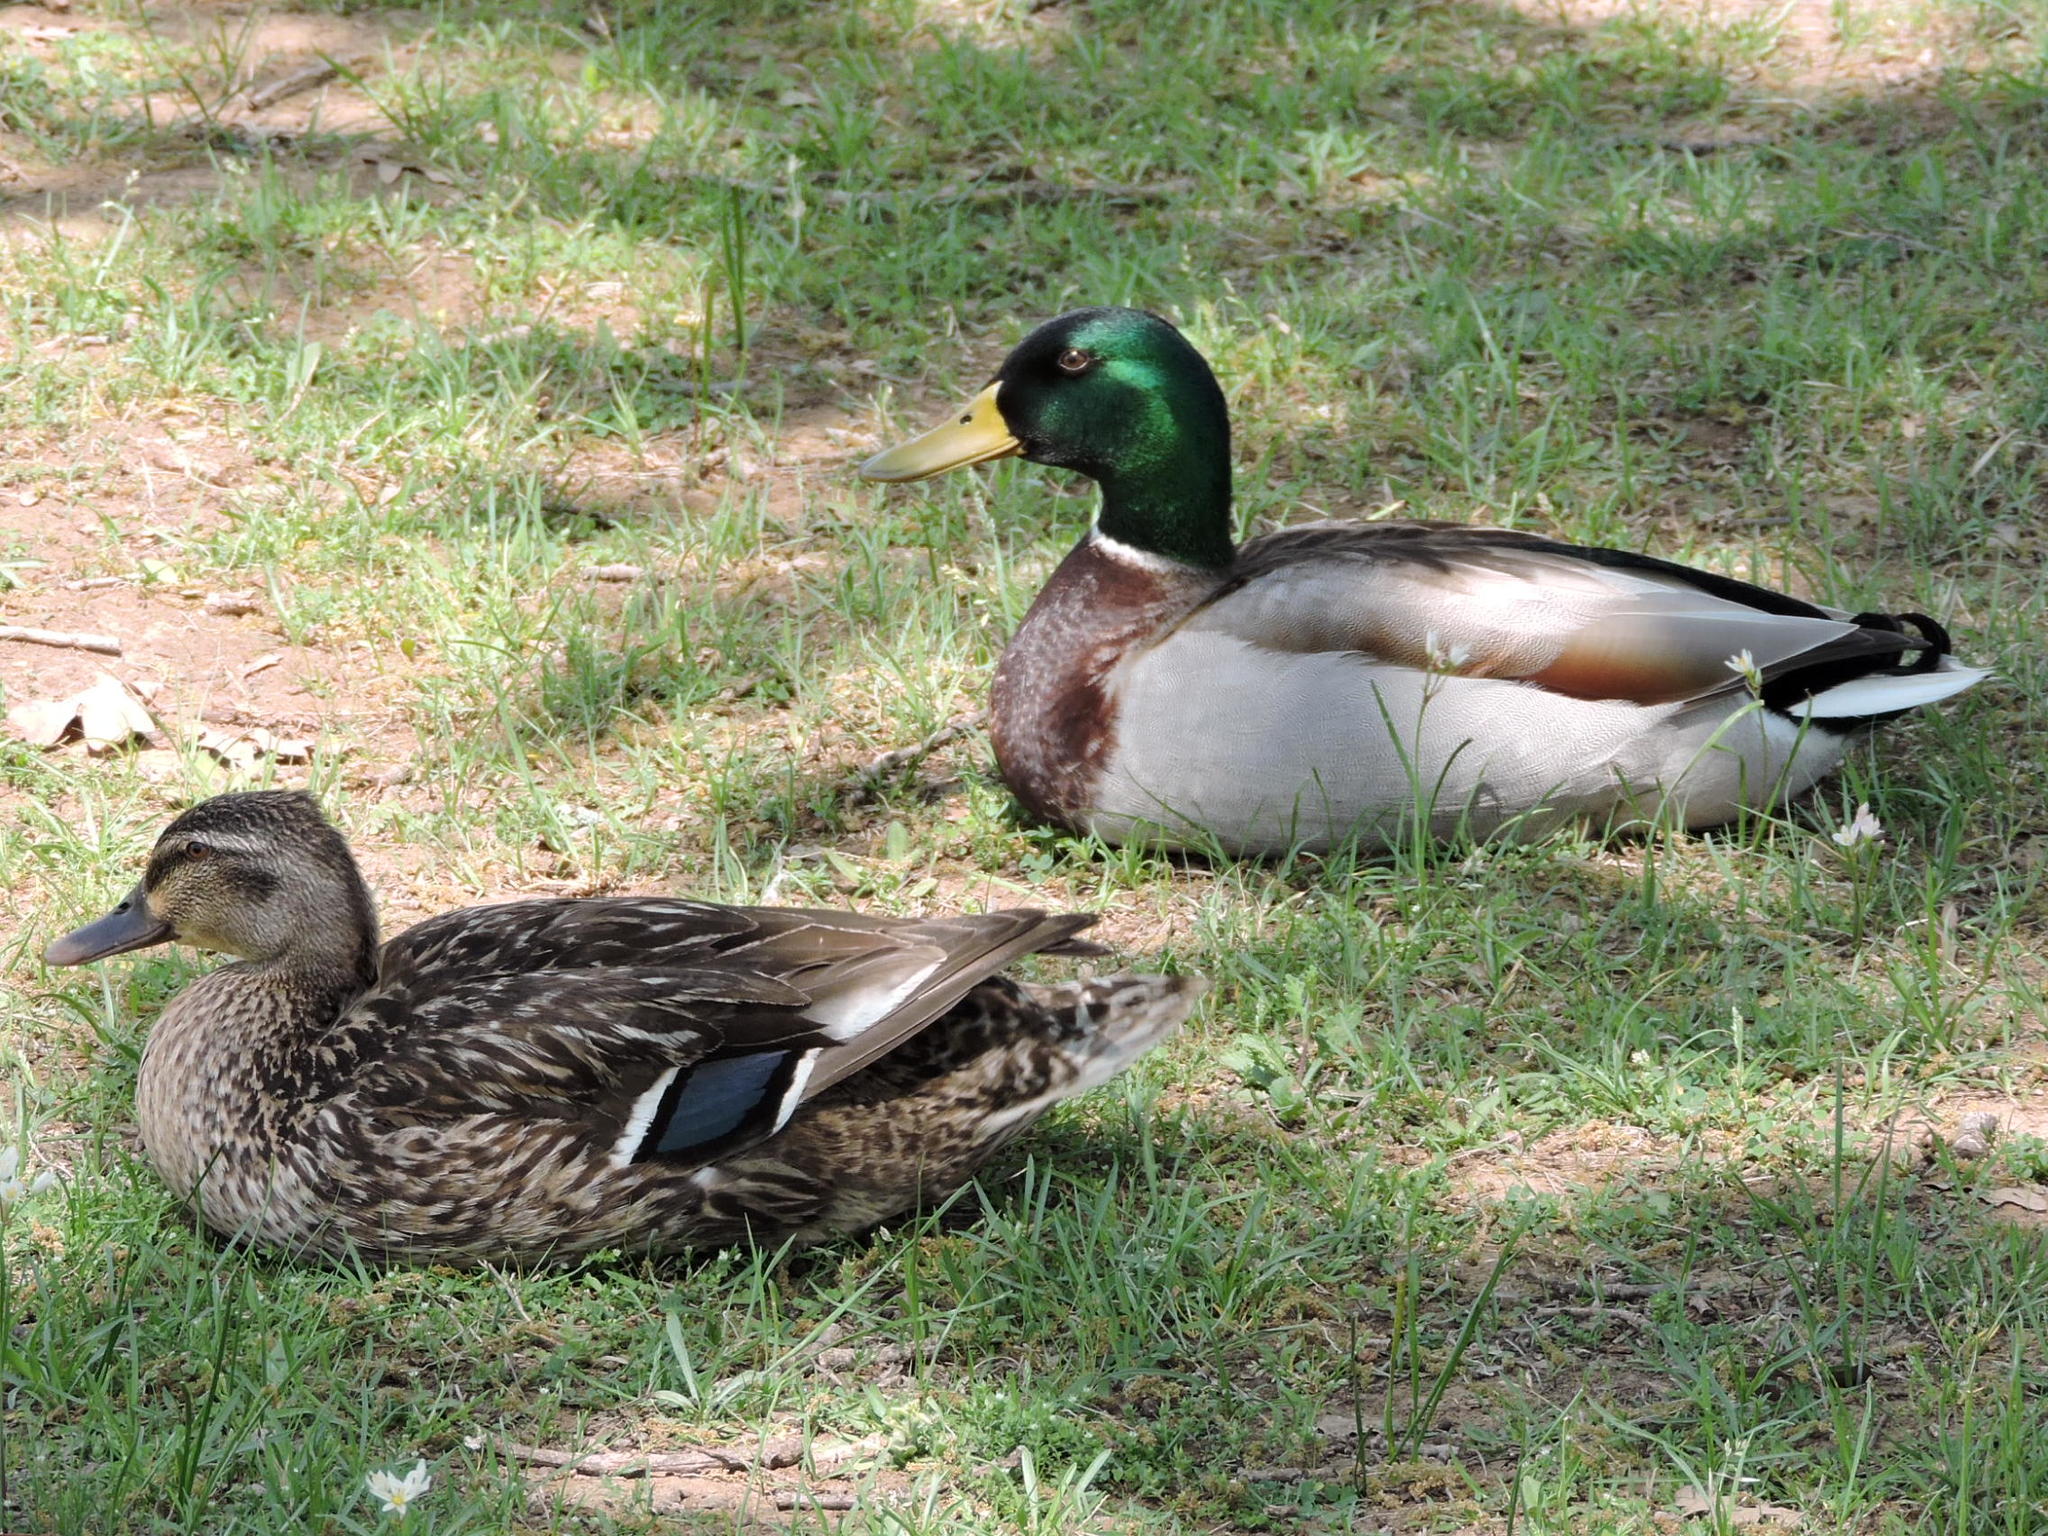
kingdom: Animalia
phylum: Chordata
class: Aves
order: Anseriformes
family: Anatidae
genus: Anas
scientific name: Anas platyrhynchos
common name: Mallard
